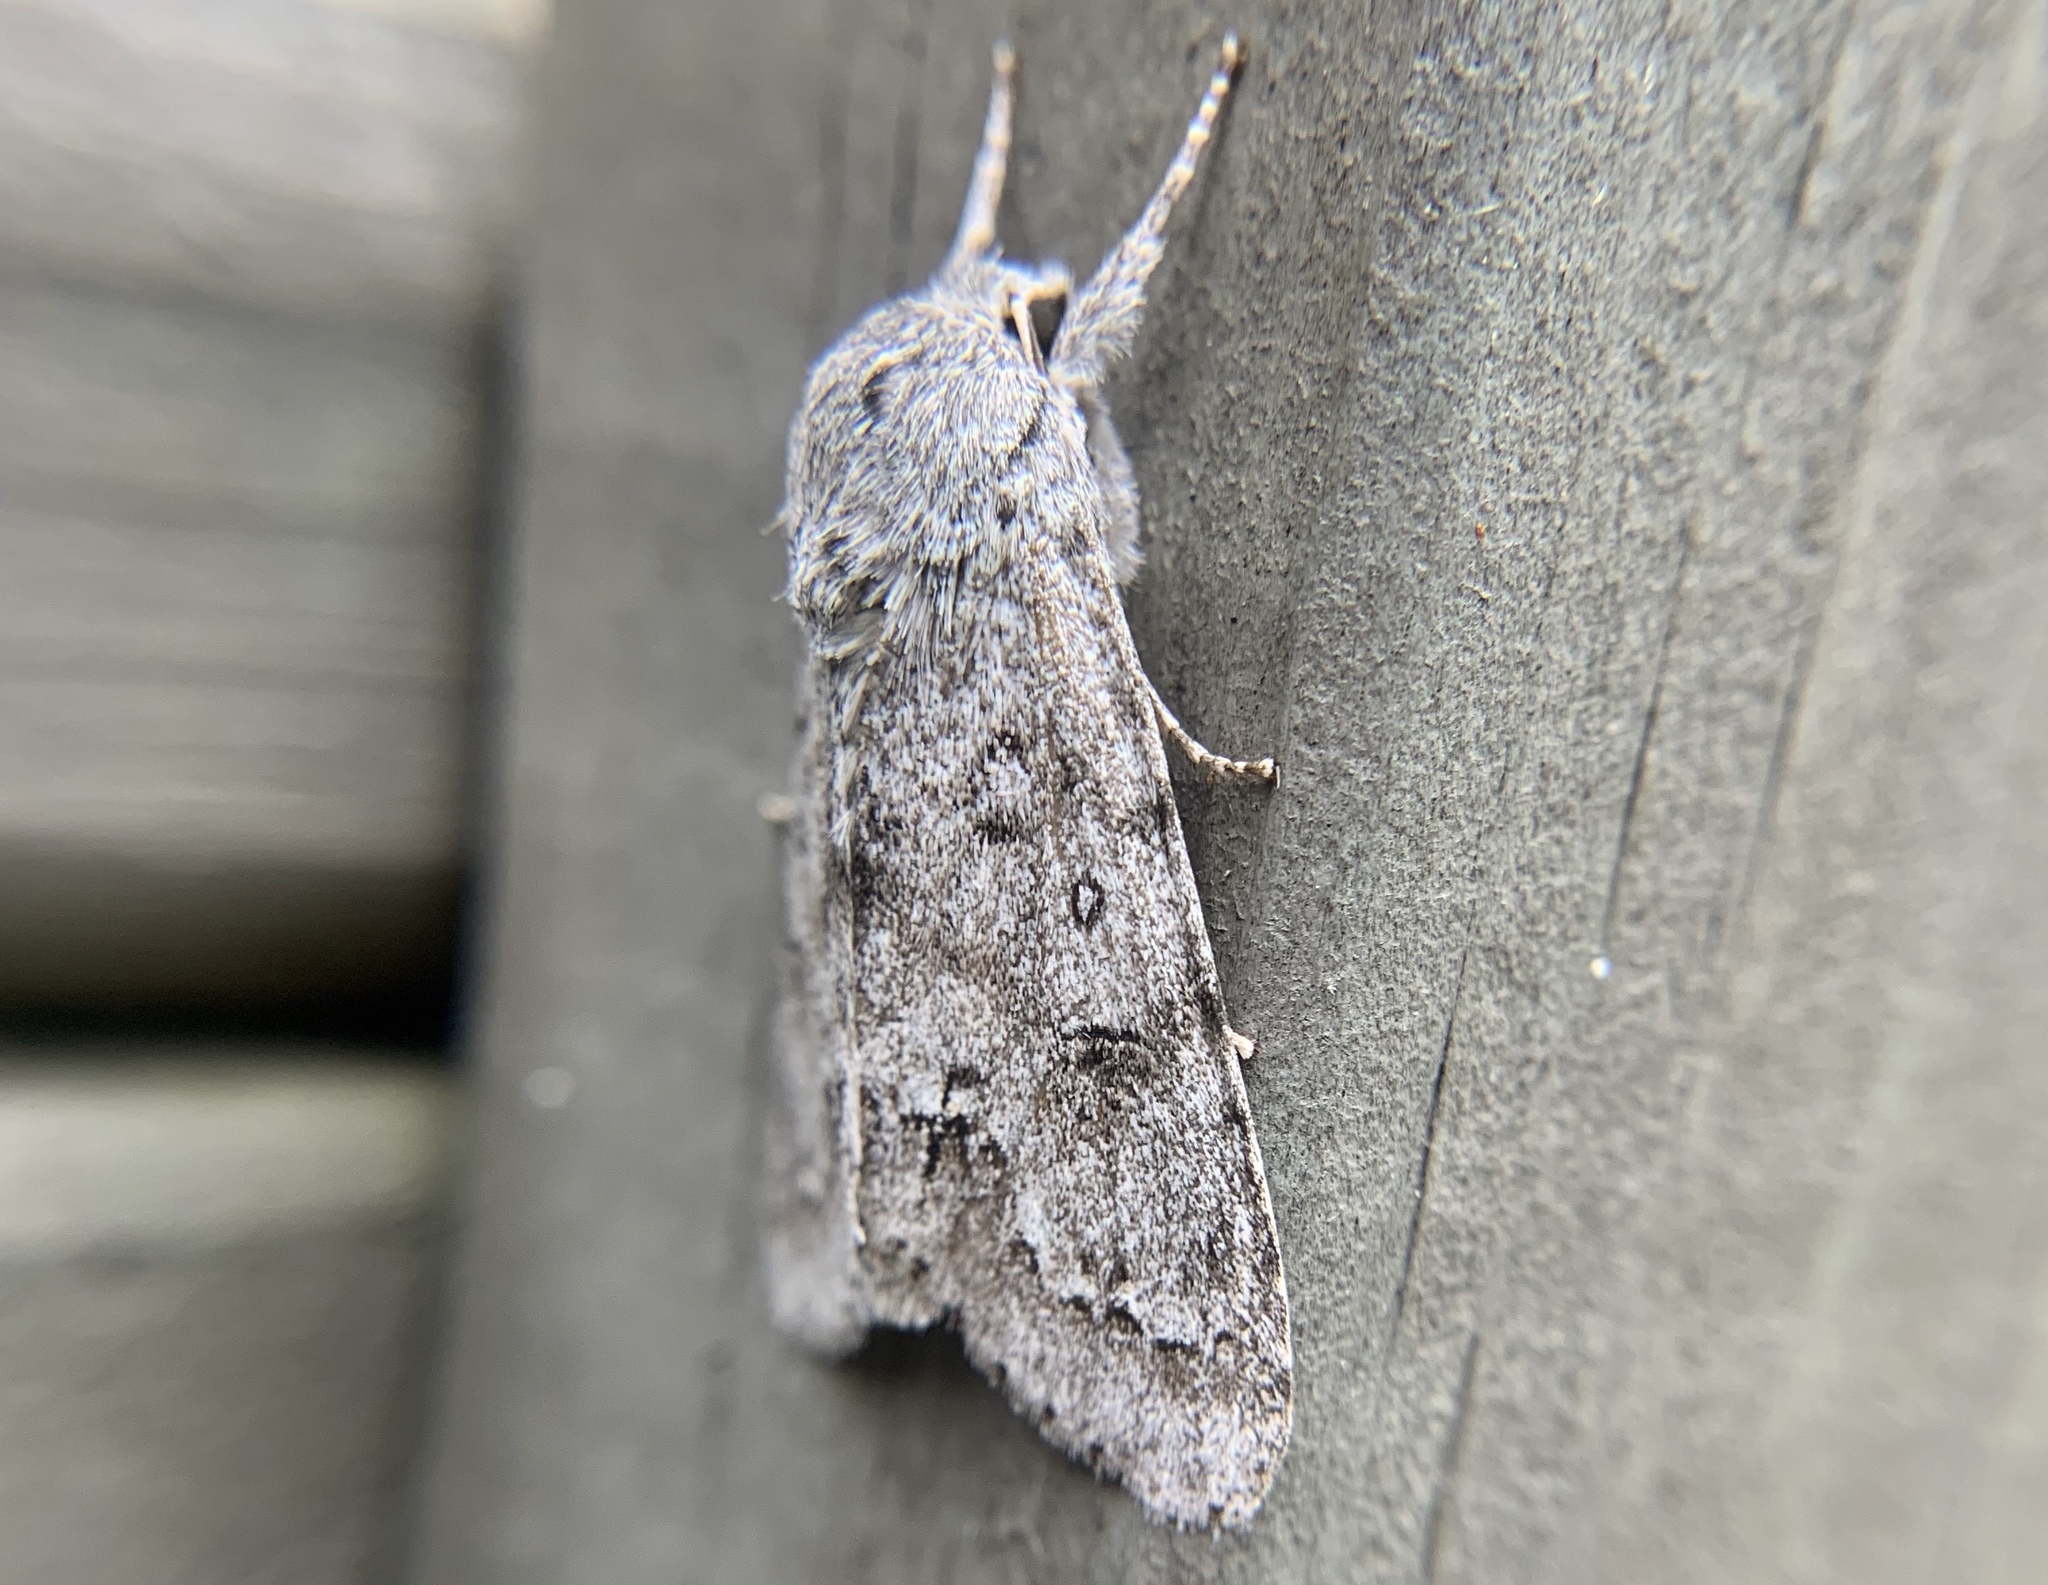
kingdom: Animalia
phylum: Arthropoda
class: Insecta
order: Lepidoptera
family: Noctuidae
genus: Acronicta
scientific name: Acronicta insita
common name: Large gray dagger
